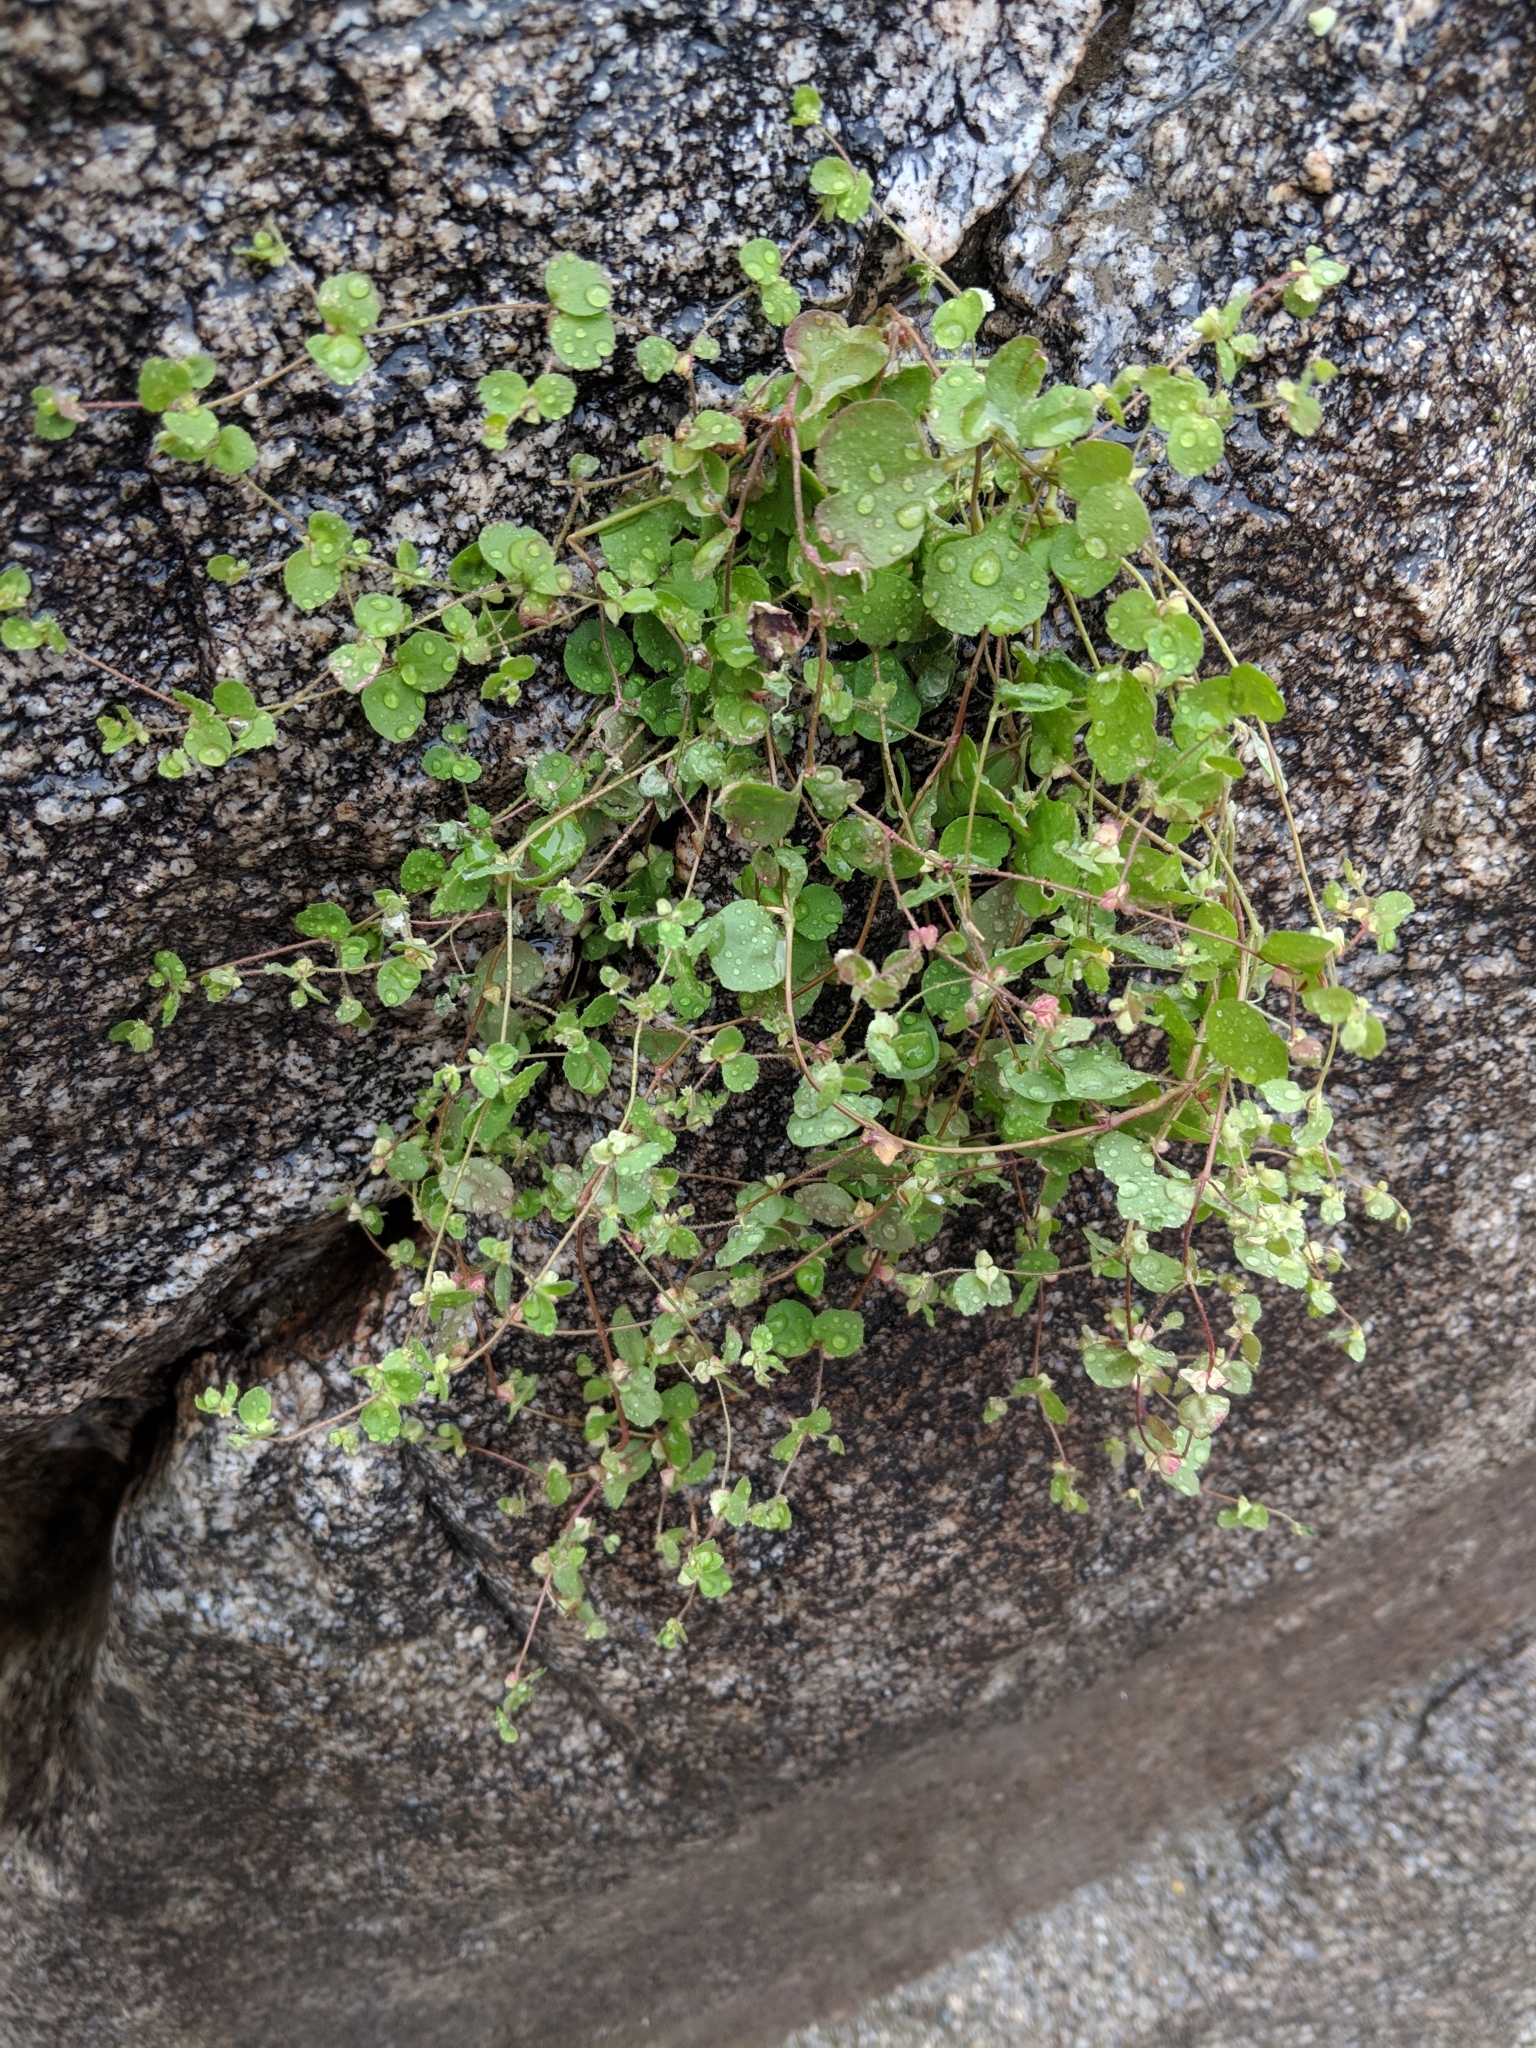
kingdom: Plantae
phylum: Tracheophyta
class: Magnoliopsida
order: Caryophyllales
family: Polygonaceae
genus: Pterostegia
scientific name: Pterostegia drymarioides
